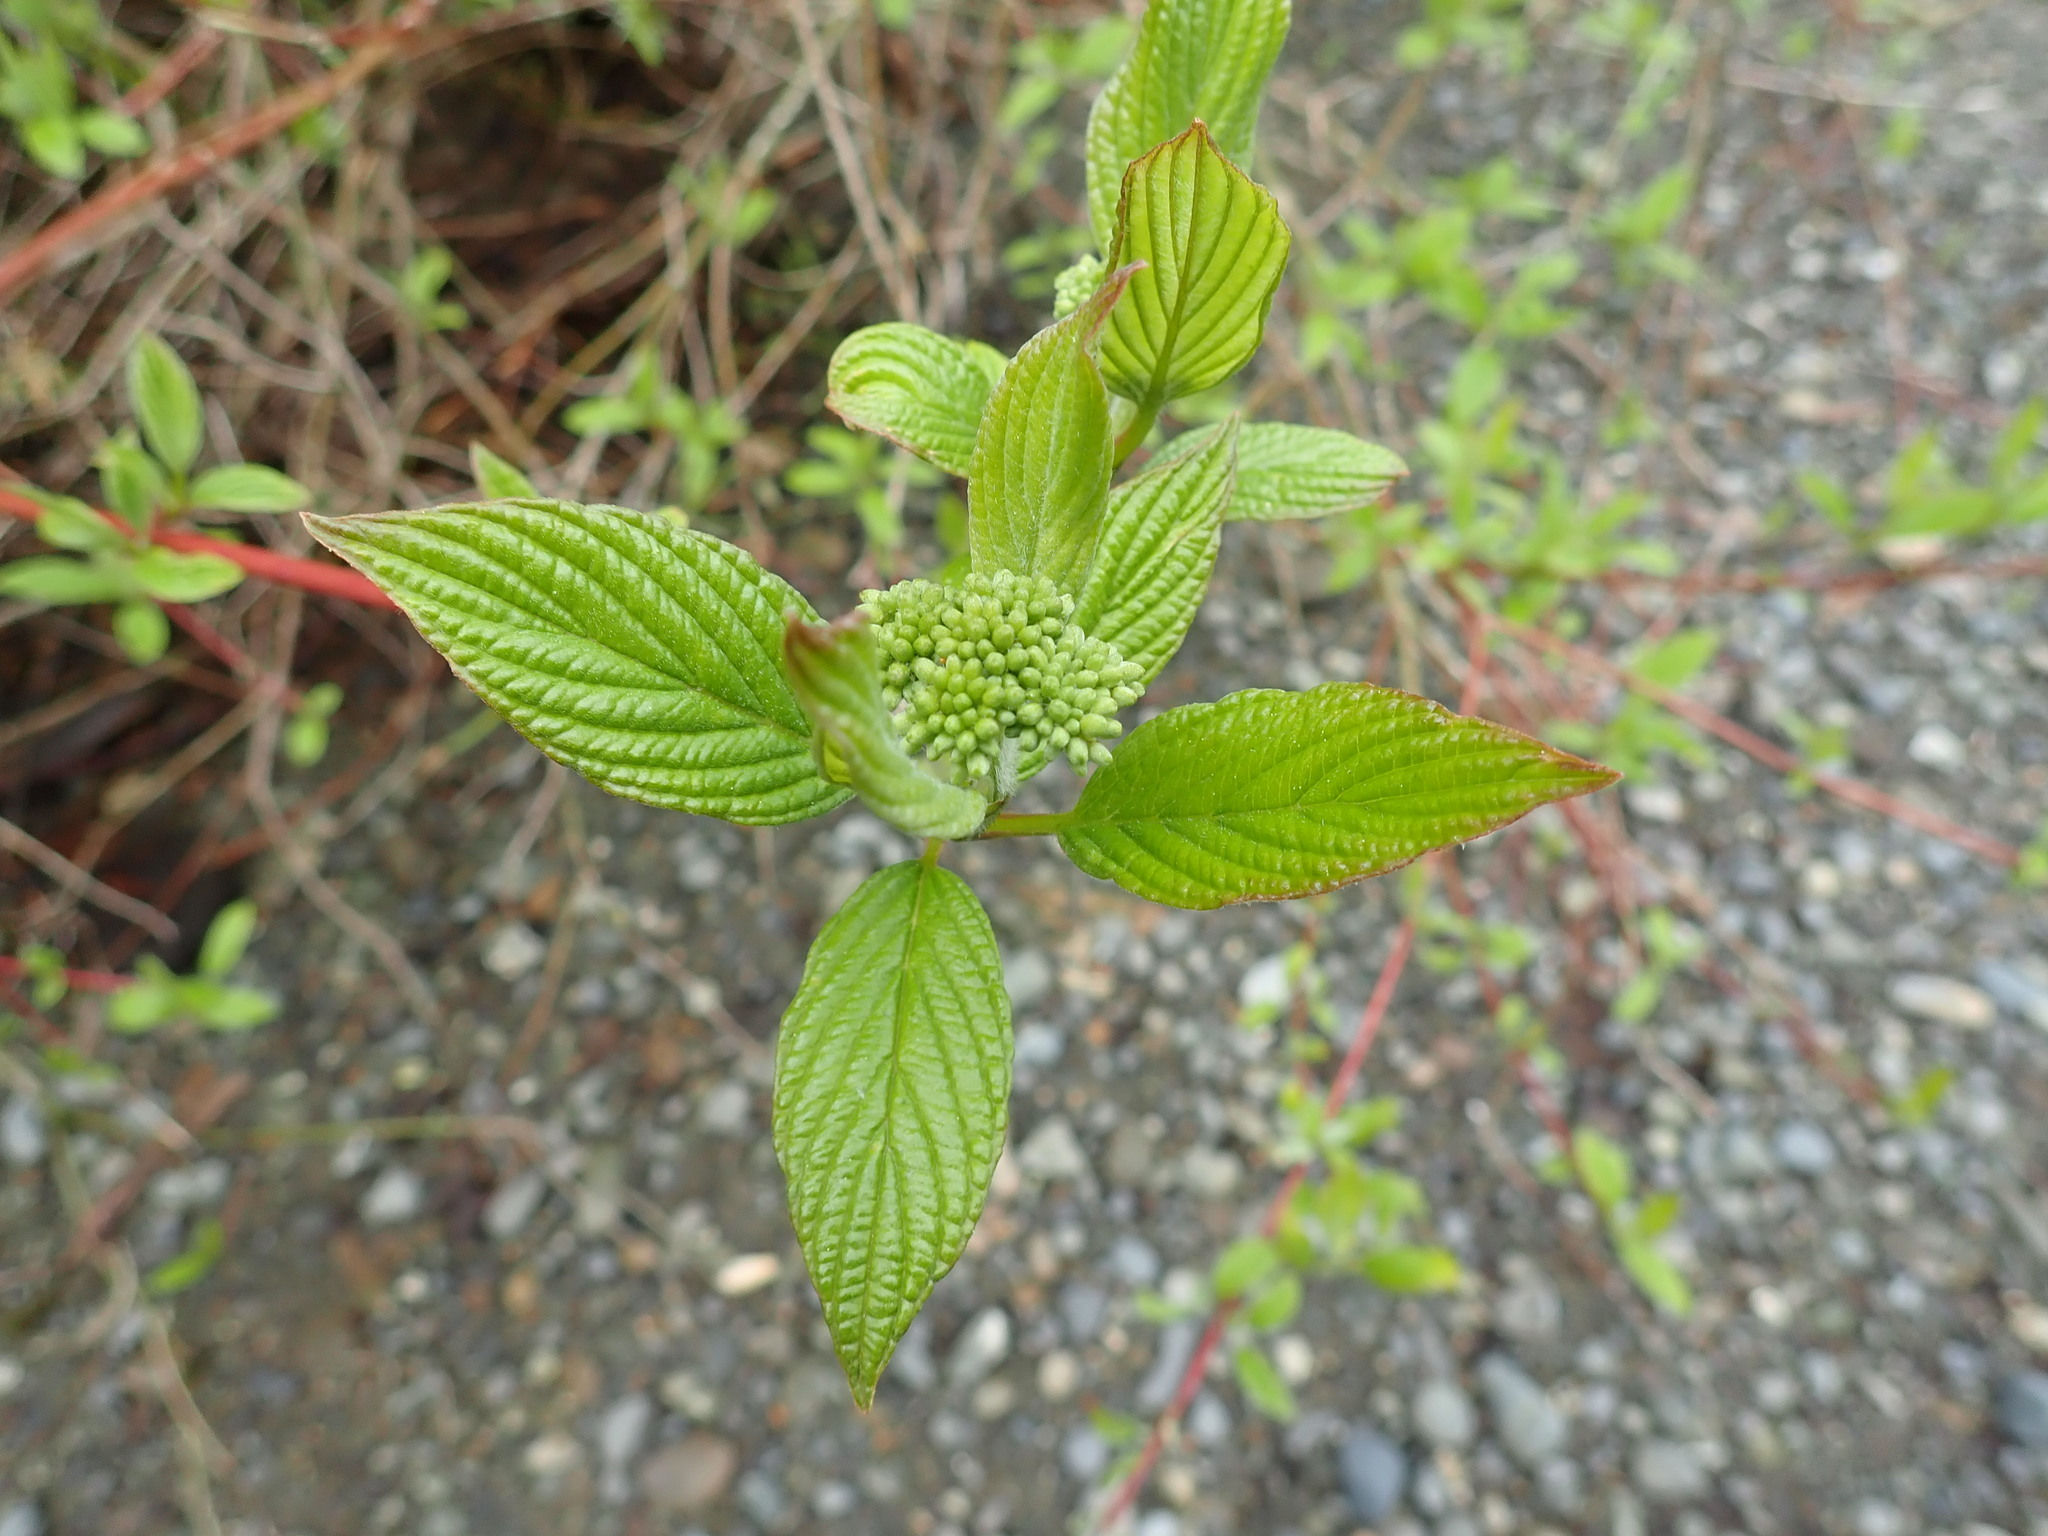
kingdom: Plantae
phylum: Tracheophyta
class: Magnoliopsida
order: Cornales
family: Cornaceae
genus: Cornus
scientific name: Cornus sericea
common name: Red-osier dogwood
